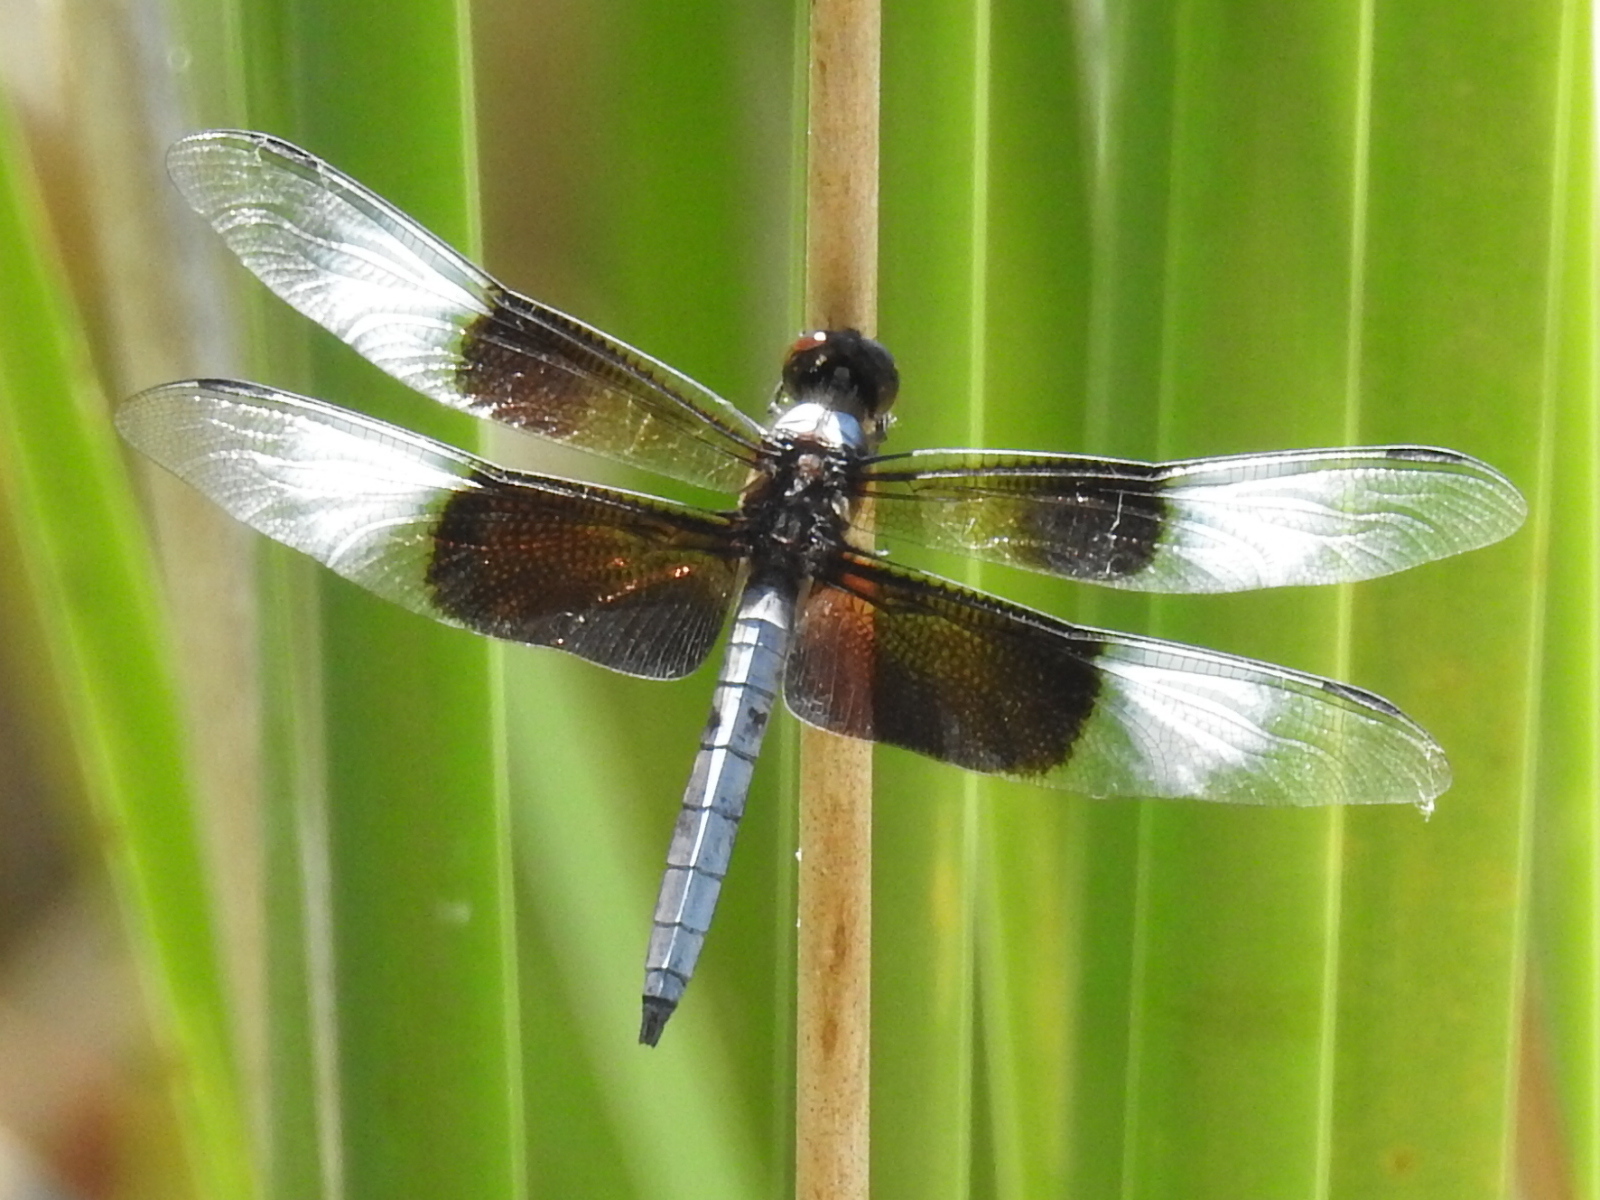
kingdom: Animalia
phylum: Arthropoda
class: Insecta
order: Odonata
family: Libellulidae
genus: Libellula
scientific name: Libellula luctuosa
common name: Widow skimmer
